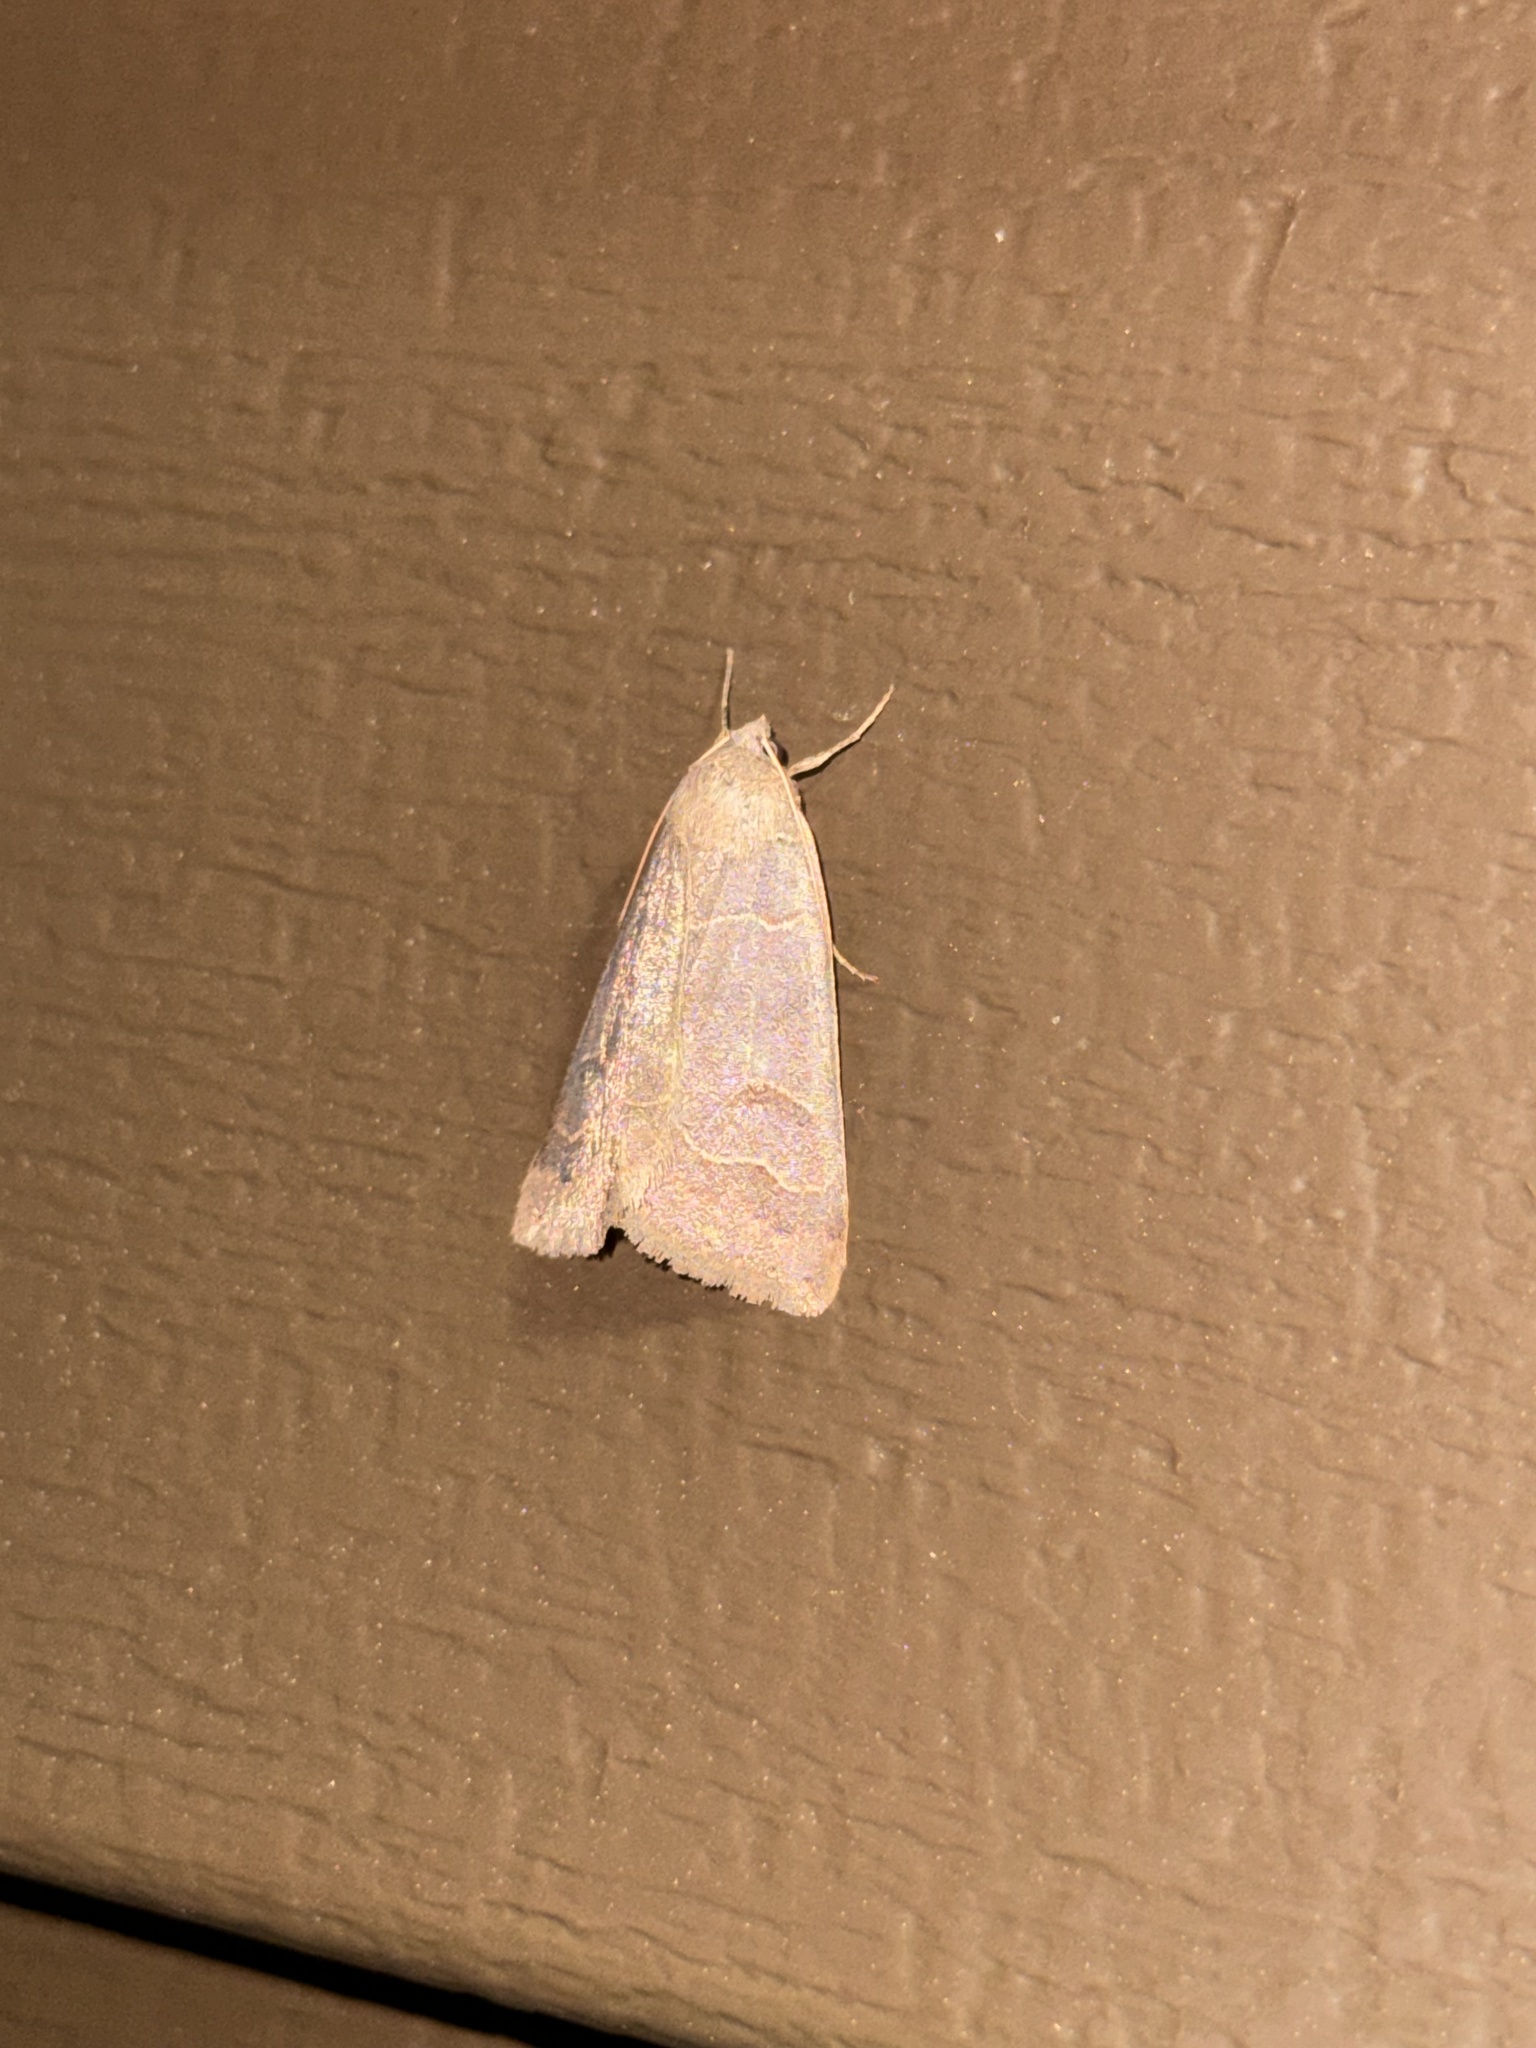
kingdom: Animalia
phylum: Arthropoda
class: Insecta
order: Lepidoptera
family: Erebidae
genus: Phoberia
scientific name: Phoberia atomaris
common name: Common oak moth
